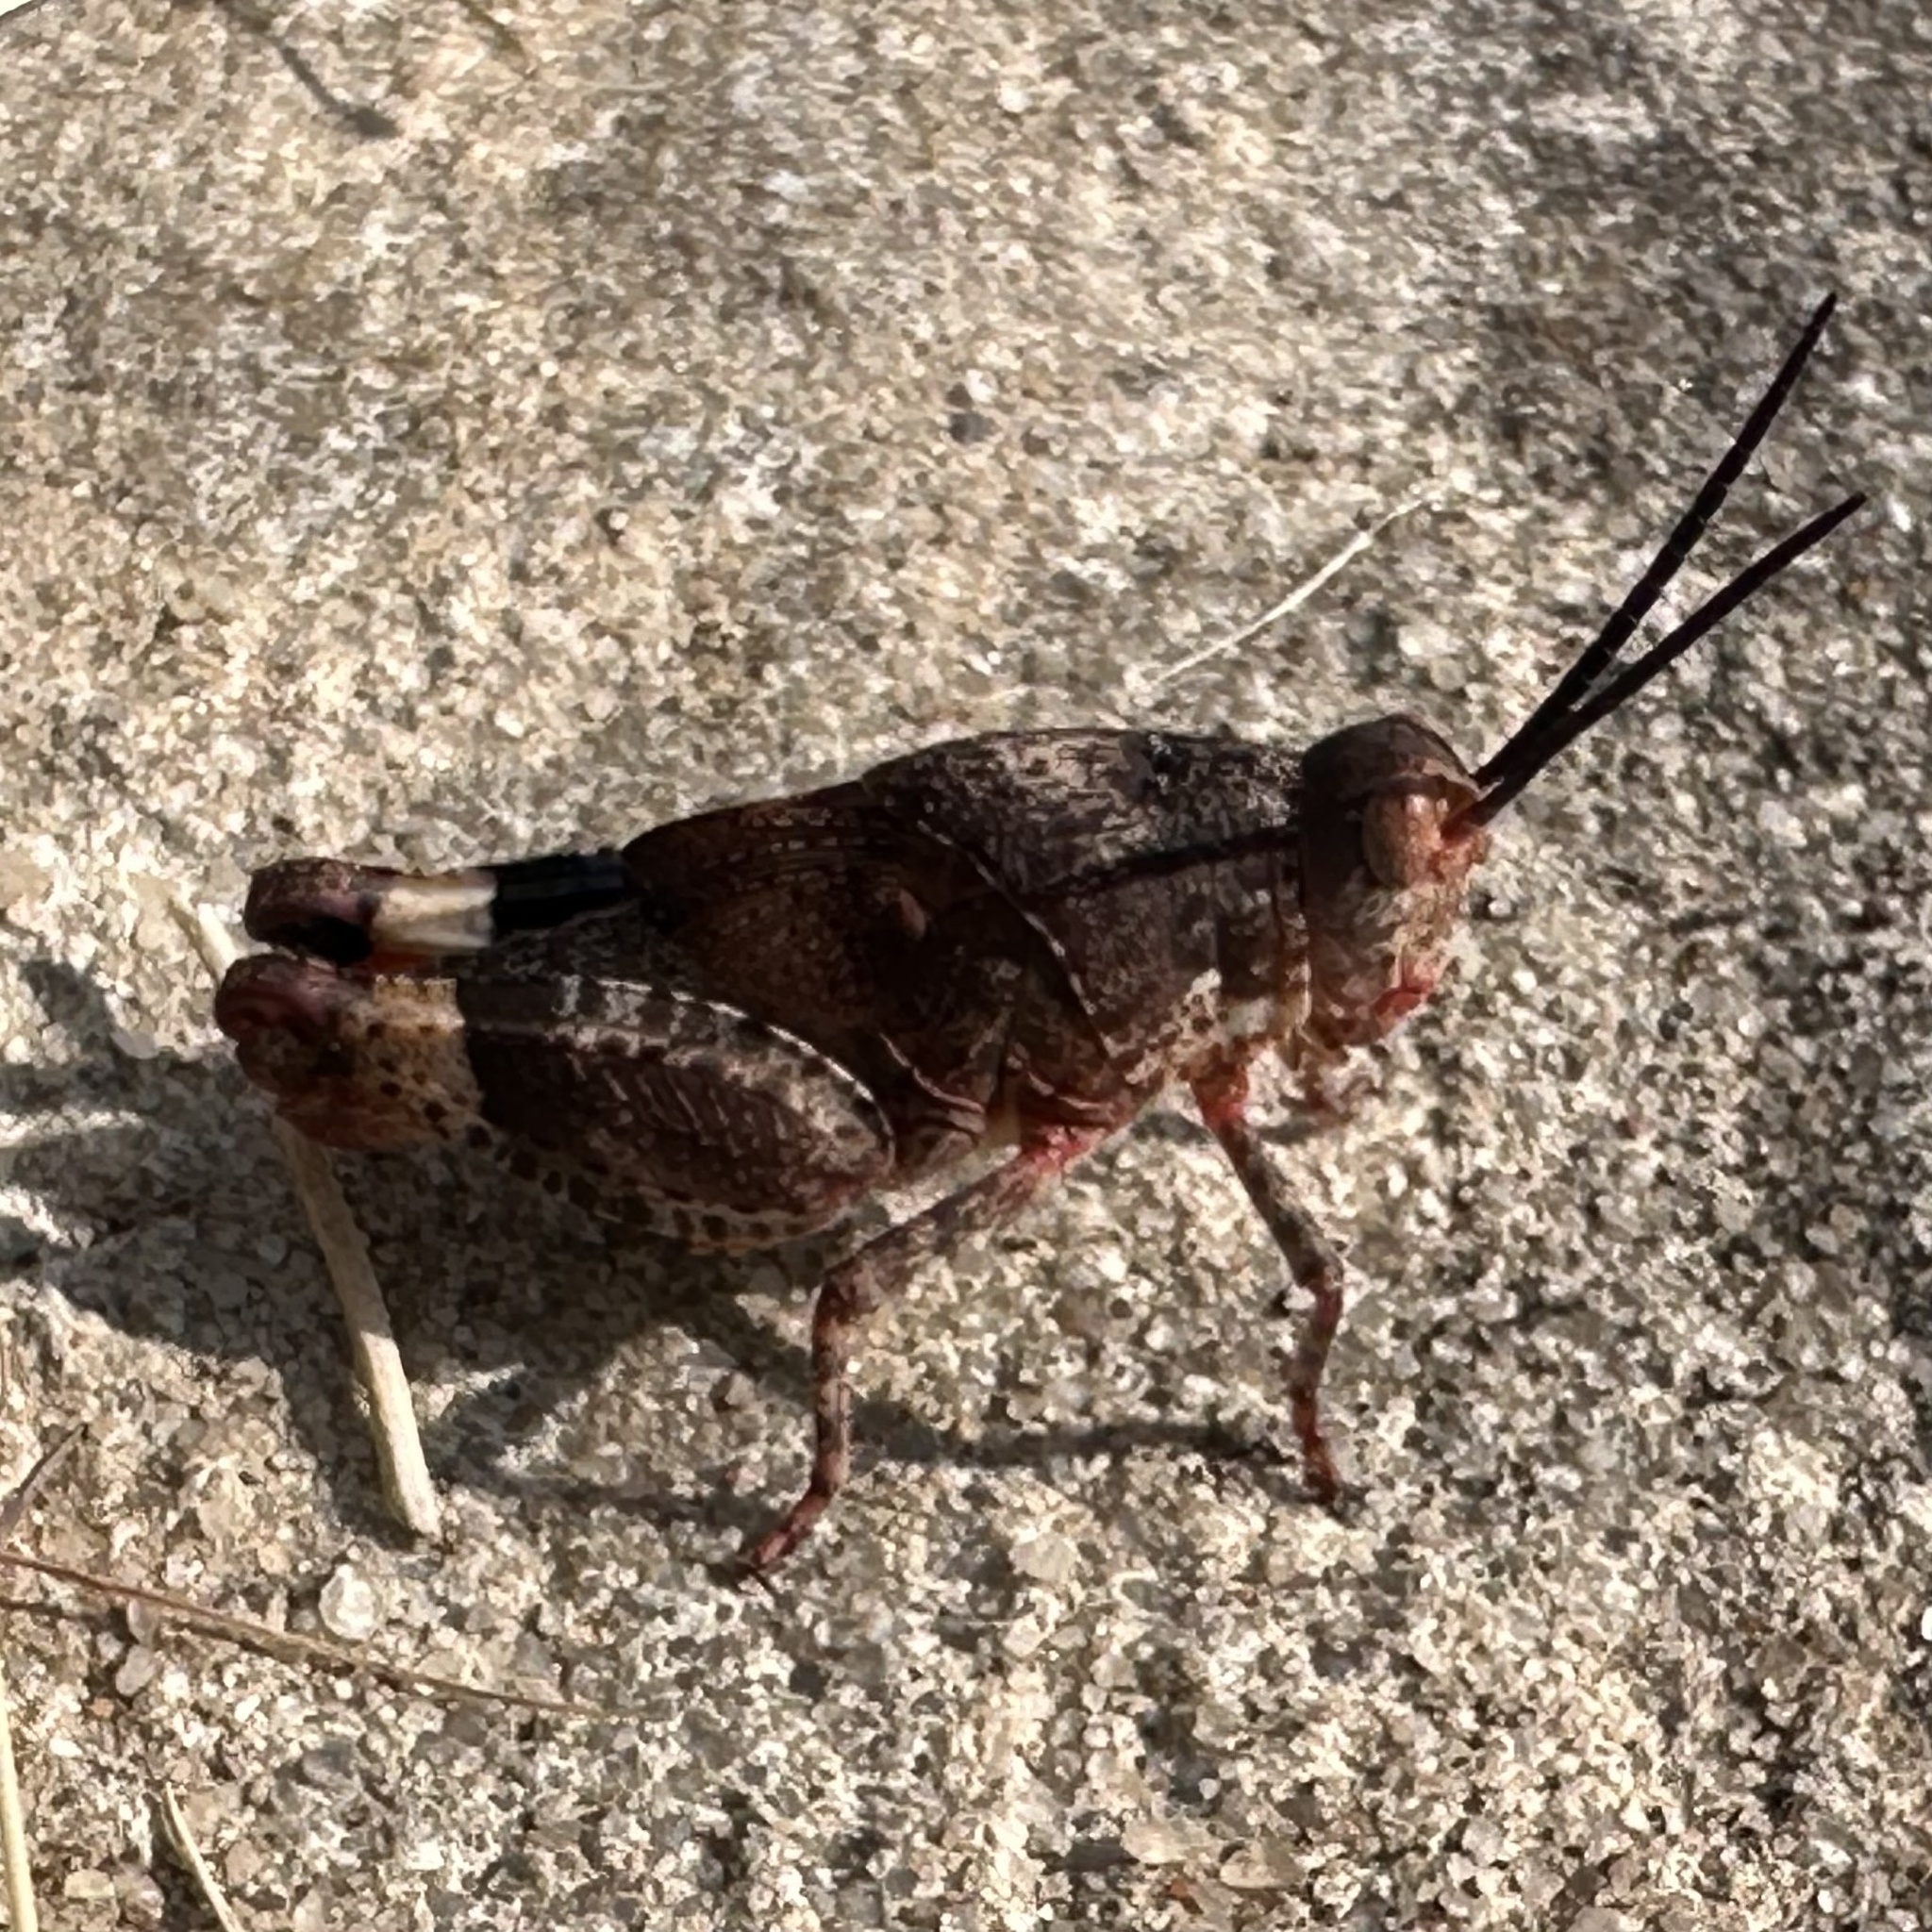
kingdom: Animalia
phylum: Arthropoda
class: Insecta
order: Orthoptera
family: Acrididae
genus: Hadrotettix
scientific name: Hadrotettix trifasciatus
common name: Threebanded grasshopper
